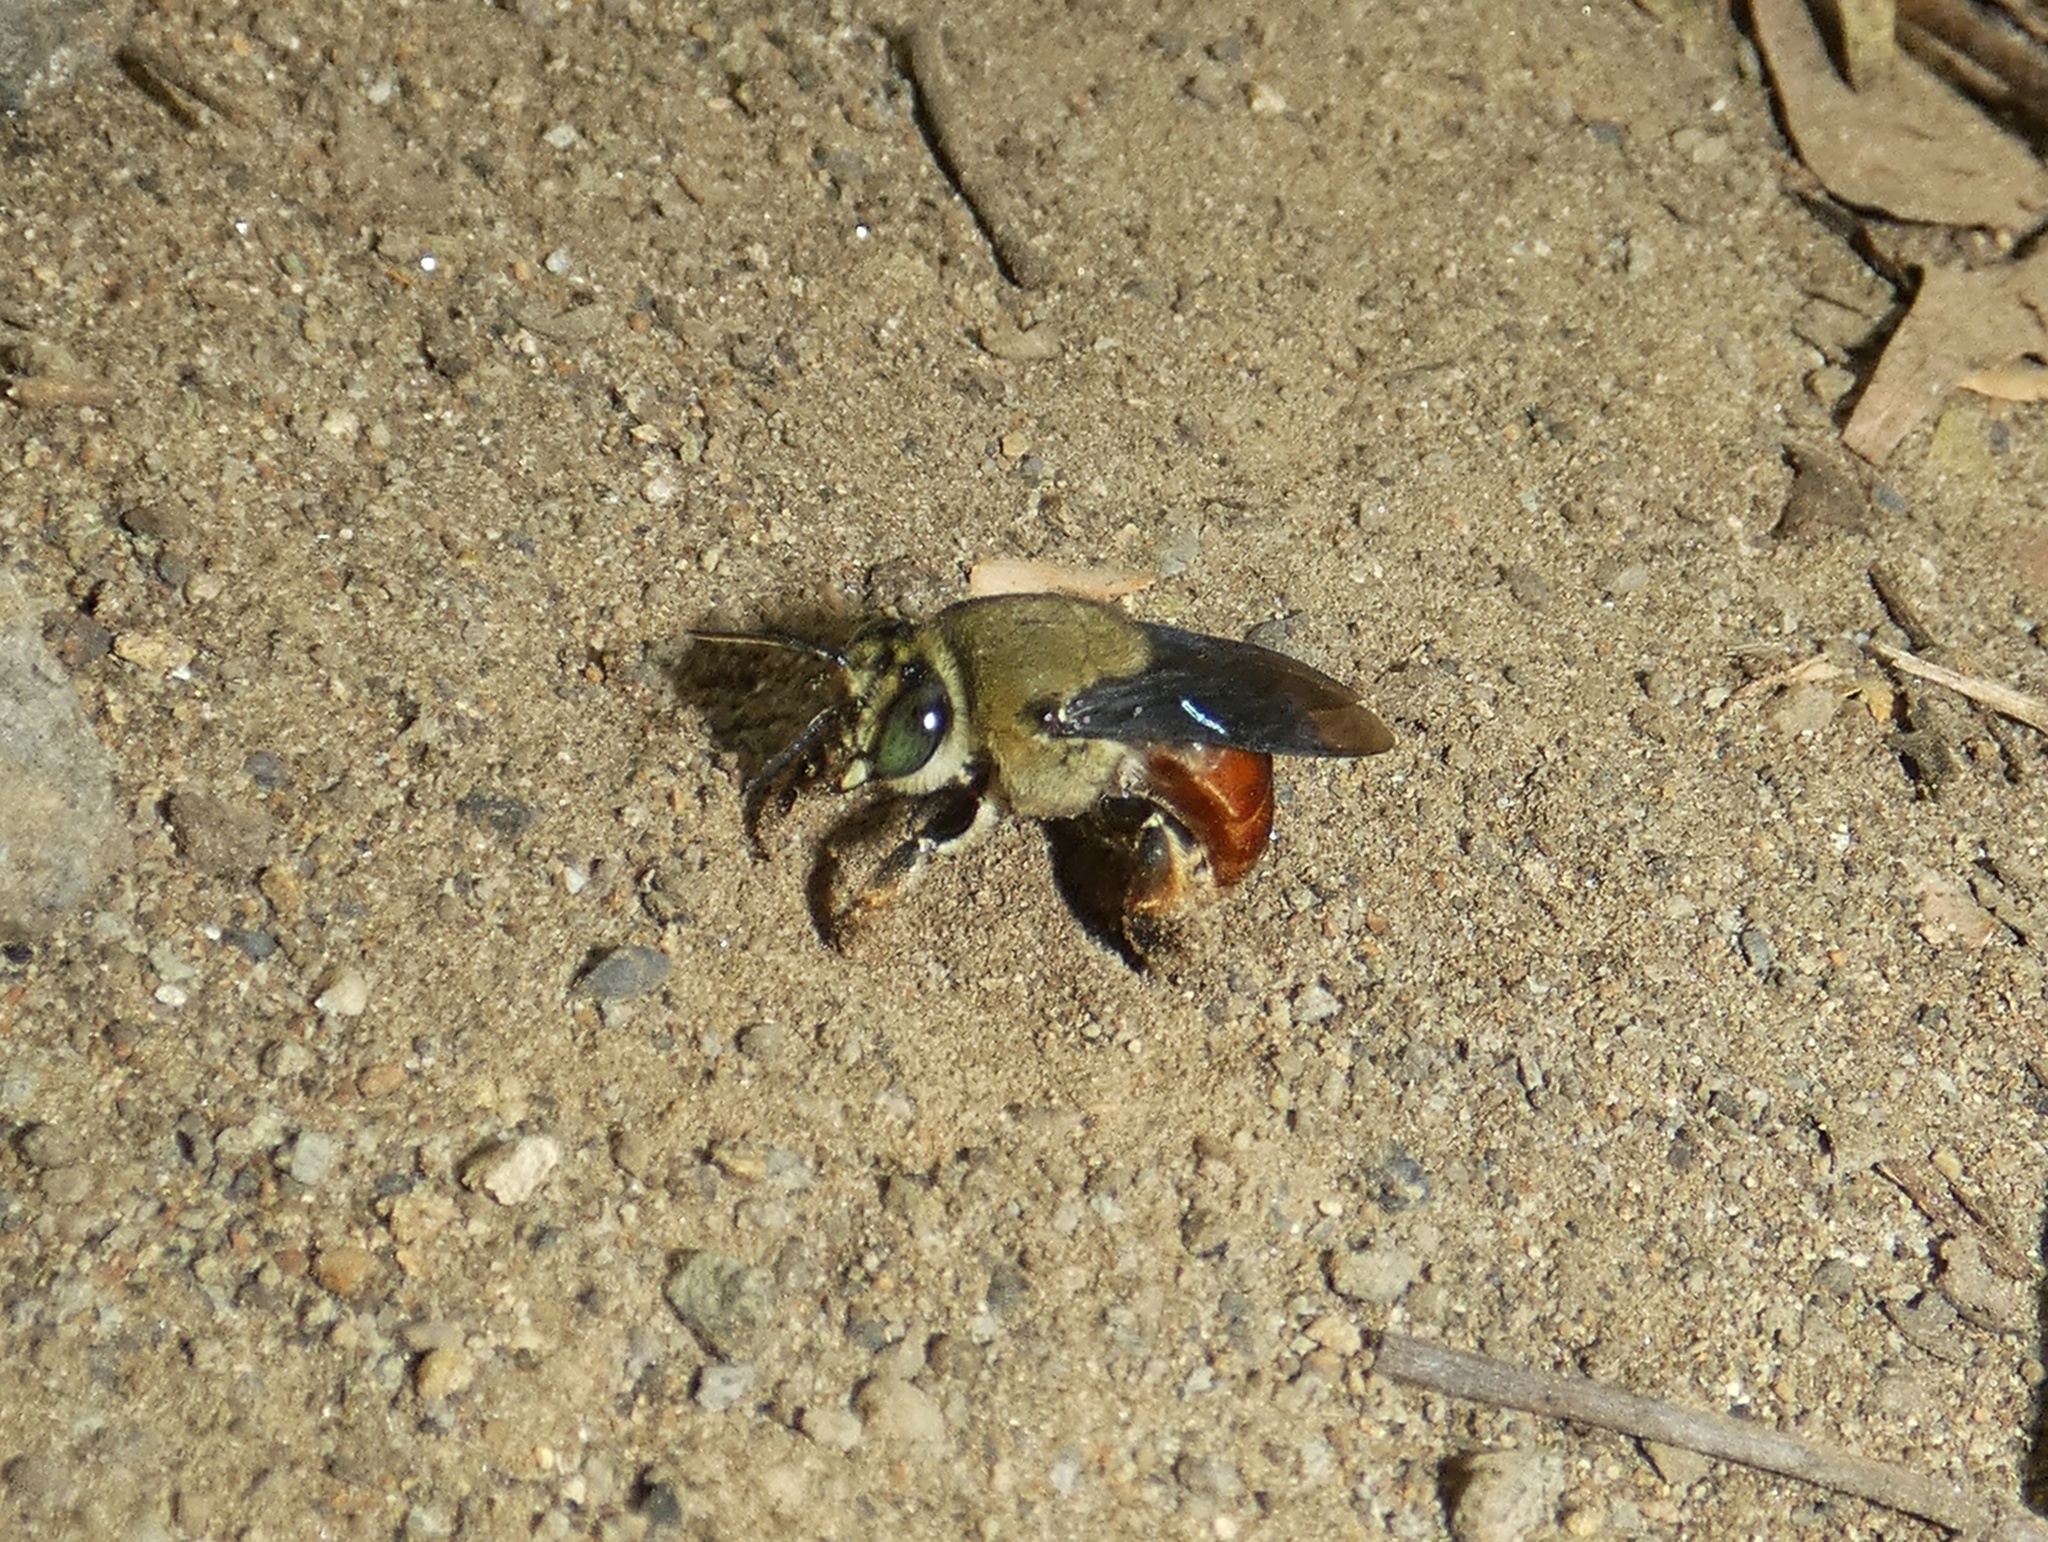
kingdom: Animalia
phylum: Arthropoda
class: Insecta
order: Hymenoptera
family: Apidae
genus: Centris
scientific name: Centris vittata
